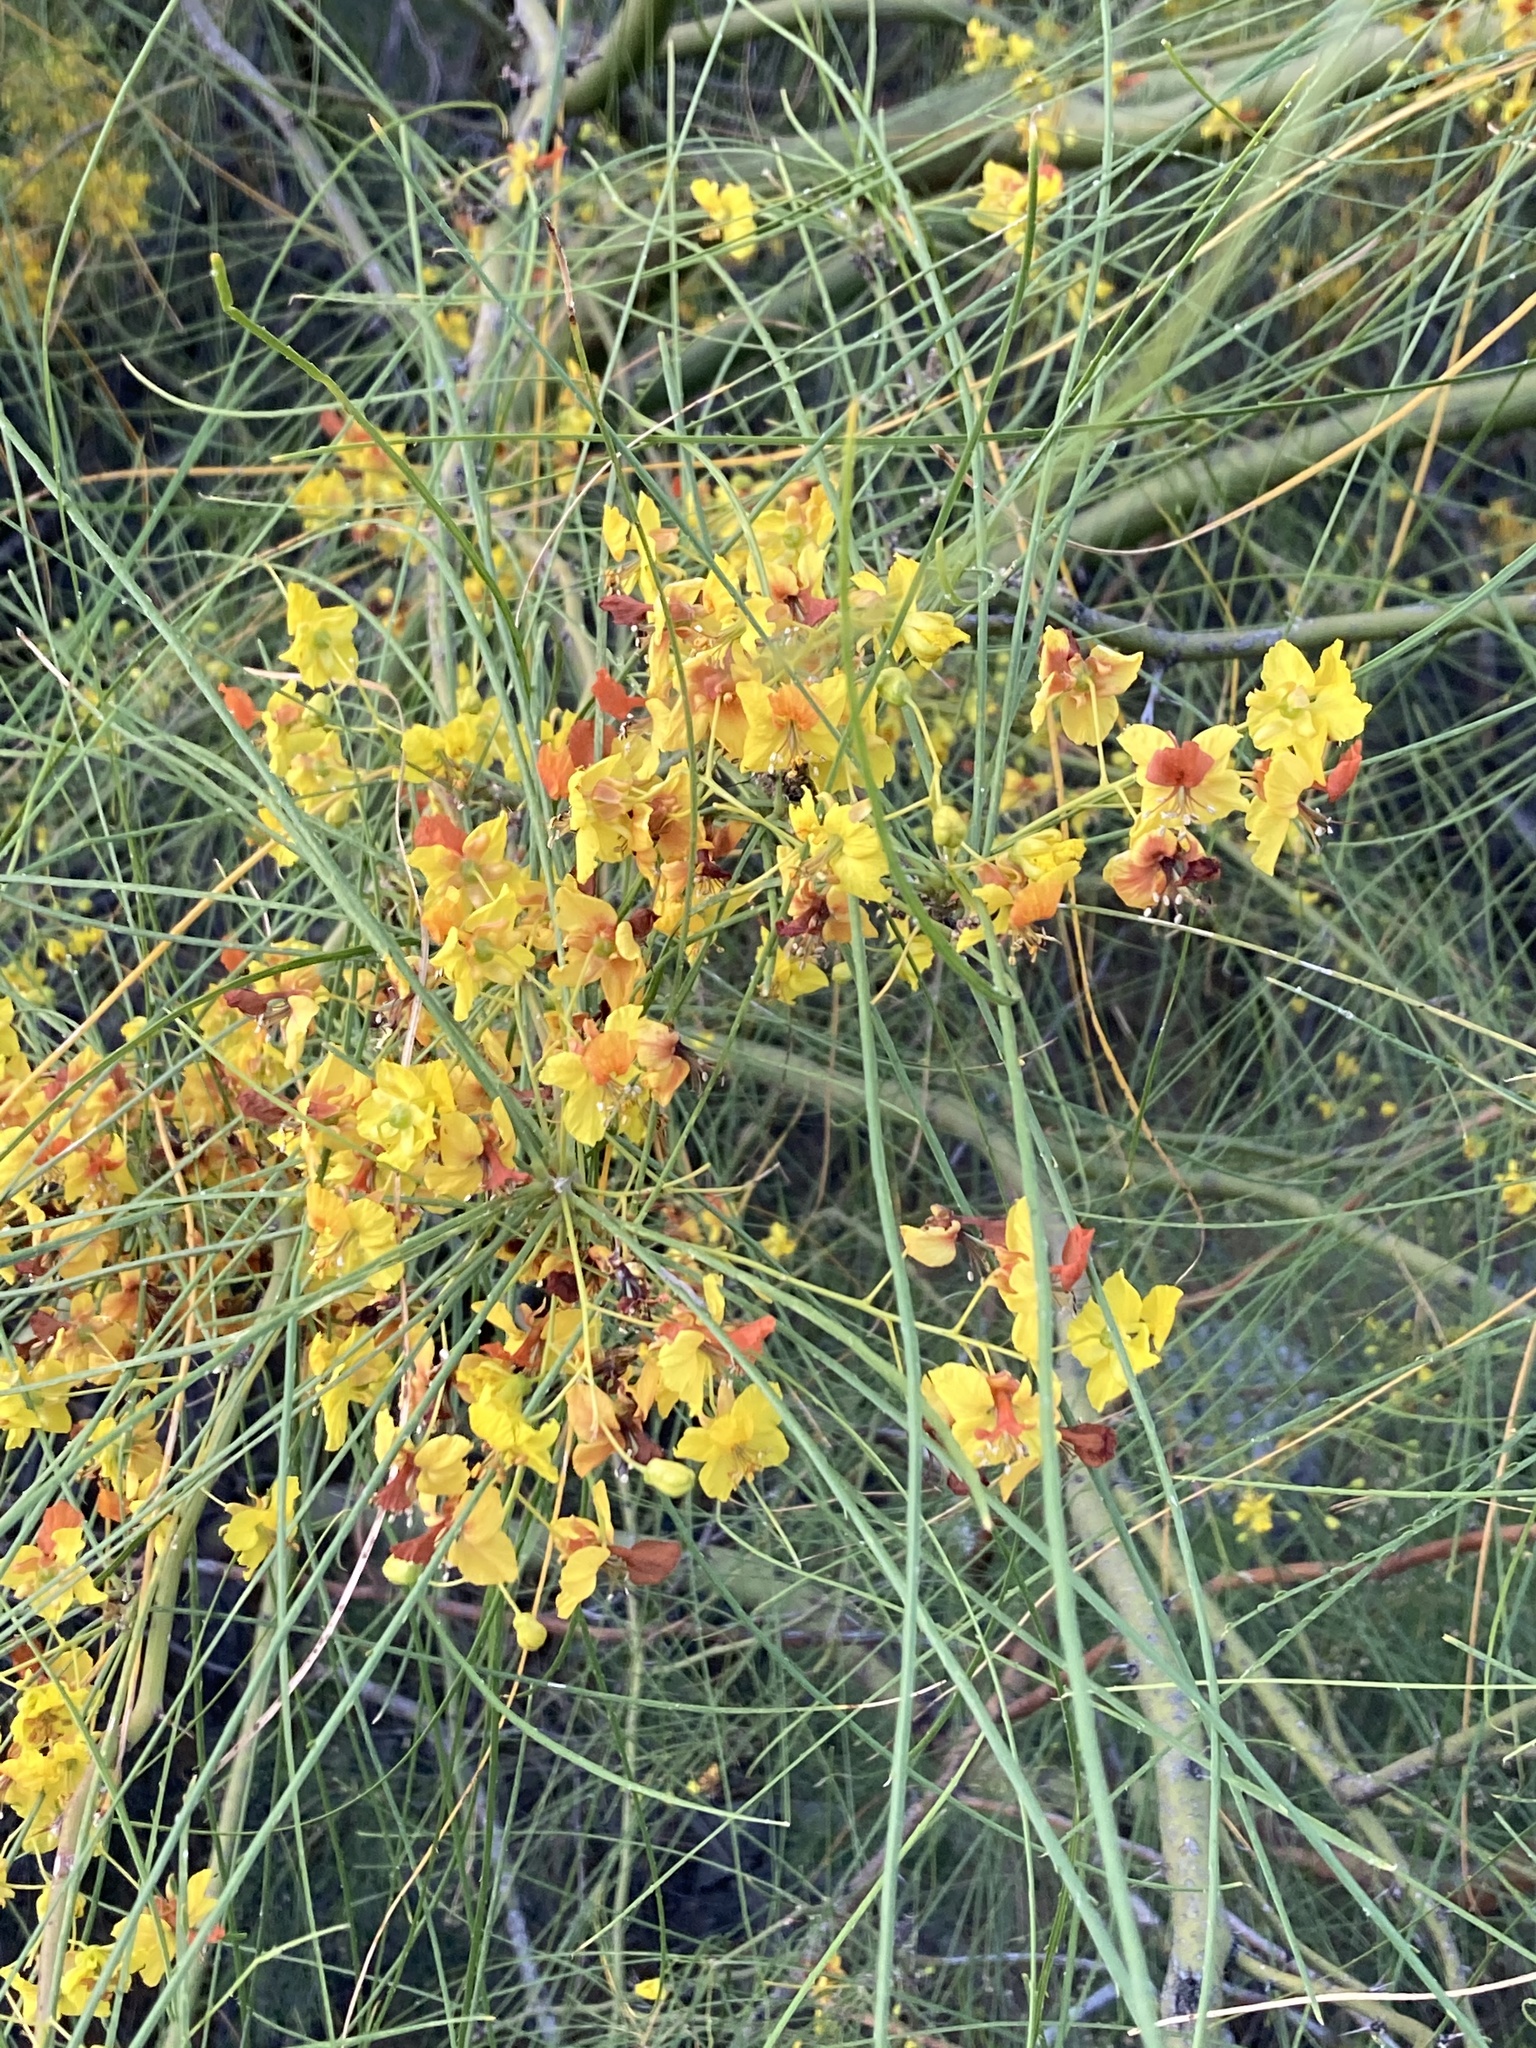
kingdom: Plantae
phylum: Tracheophyta
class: Magnoliopsida
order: Fabales
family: Fabaceae
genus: Parkinsonia
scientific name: Parkinsonia aculeata
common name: Jerusalem thorn
